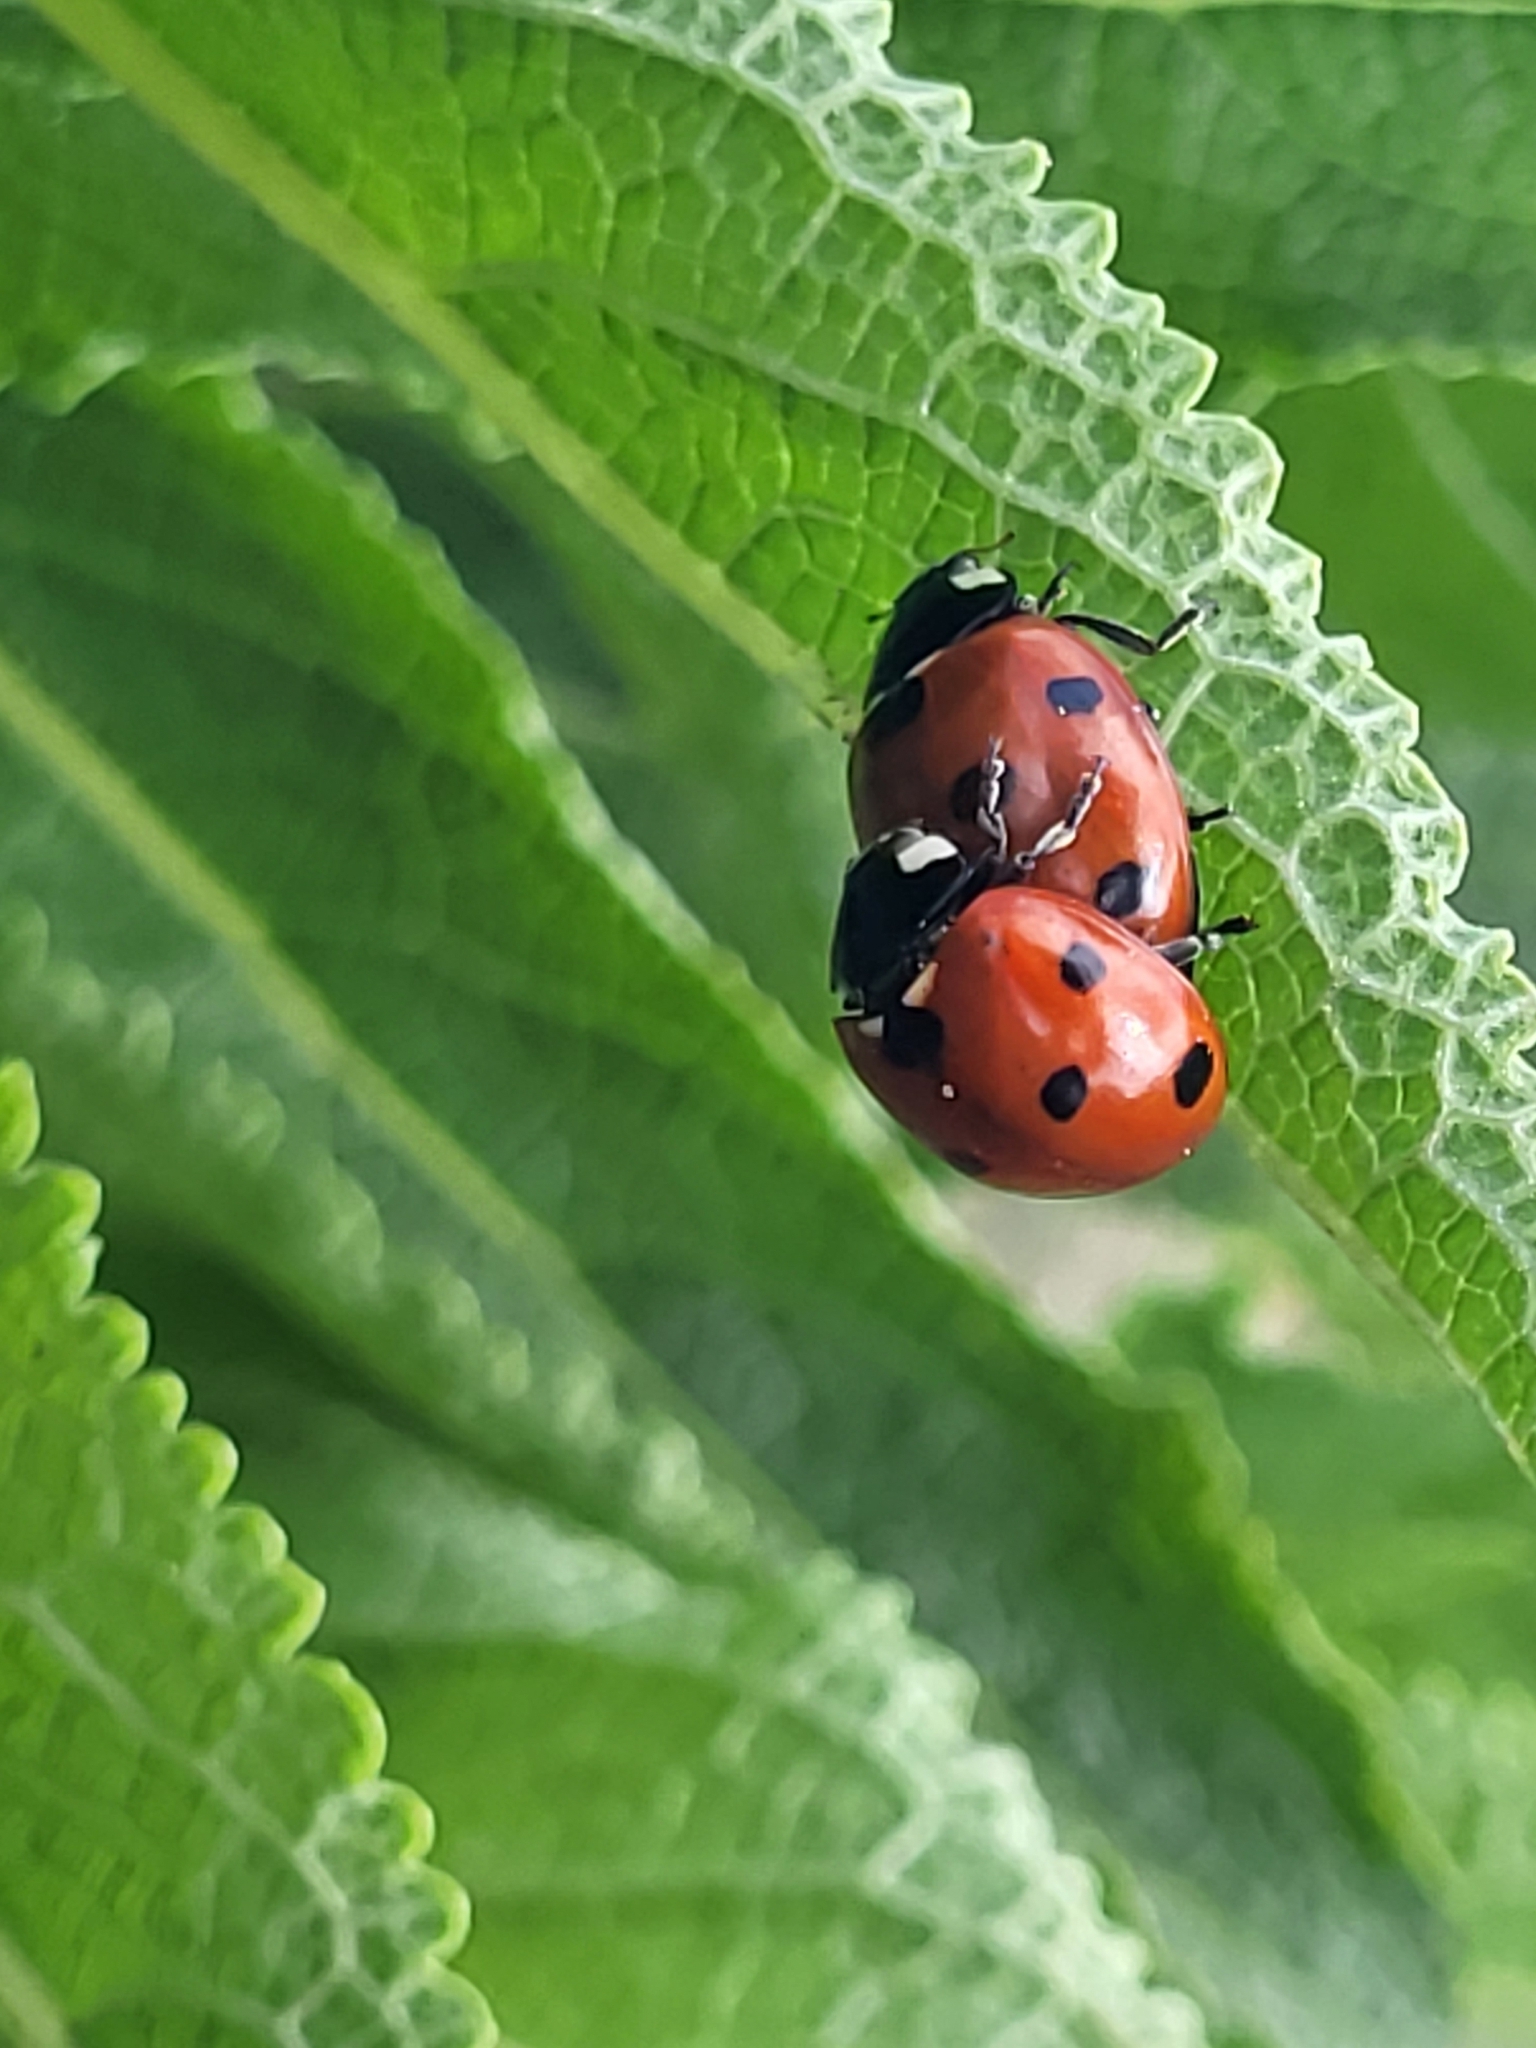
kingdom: Animalia
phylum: Arthropoda
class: Insecta
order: Coleoptera
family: Coccinellidae
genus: Coccinella
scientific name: Coccinella septempunctata
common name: Sevenspotted lady beetle
